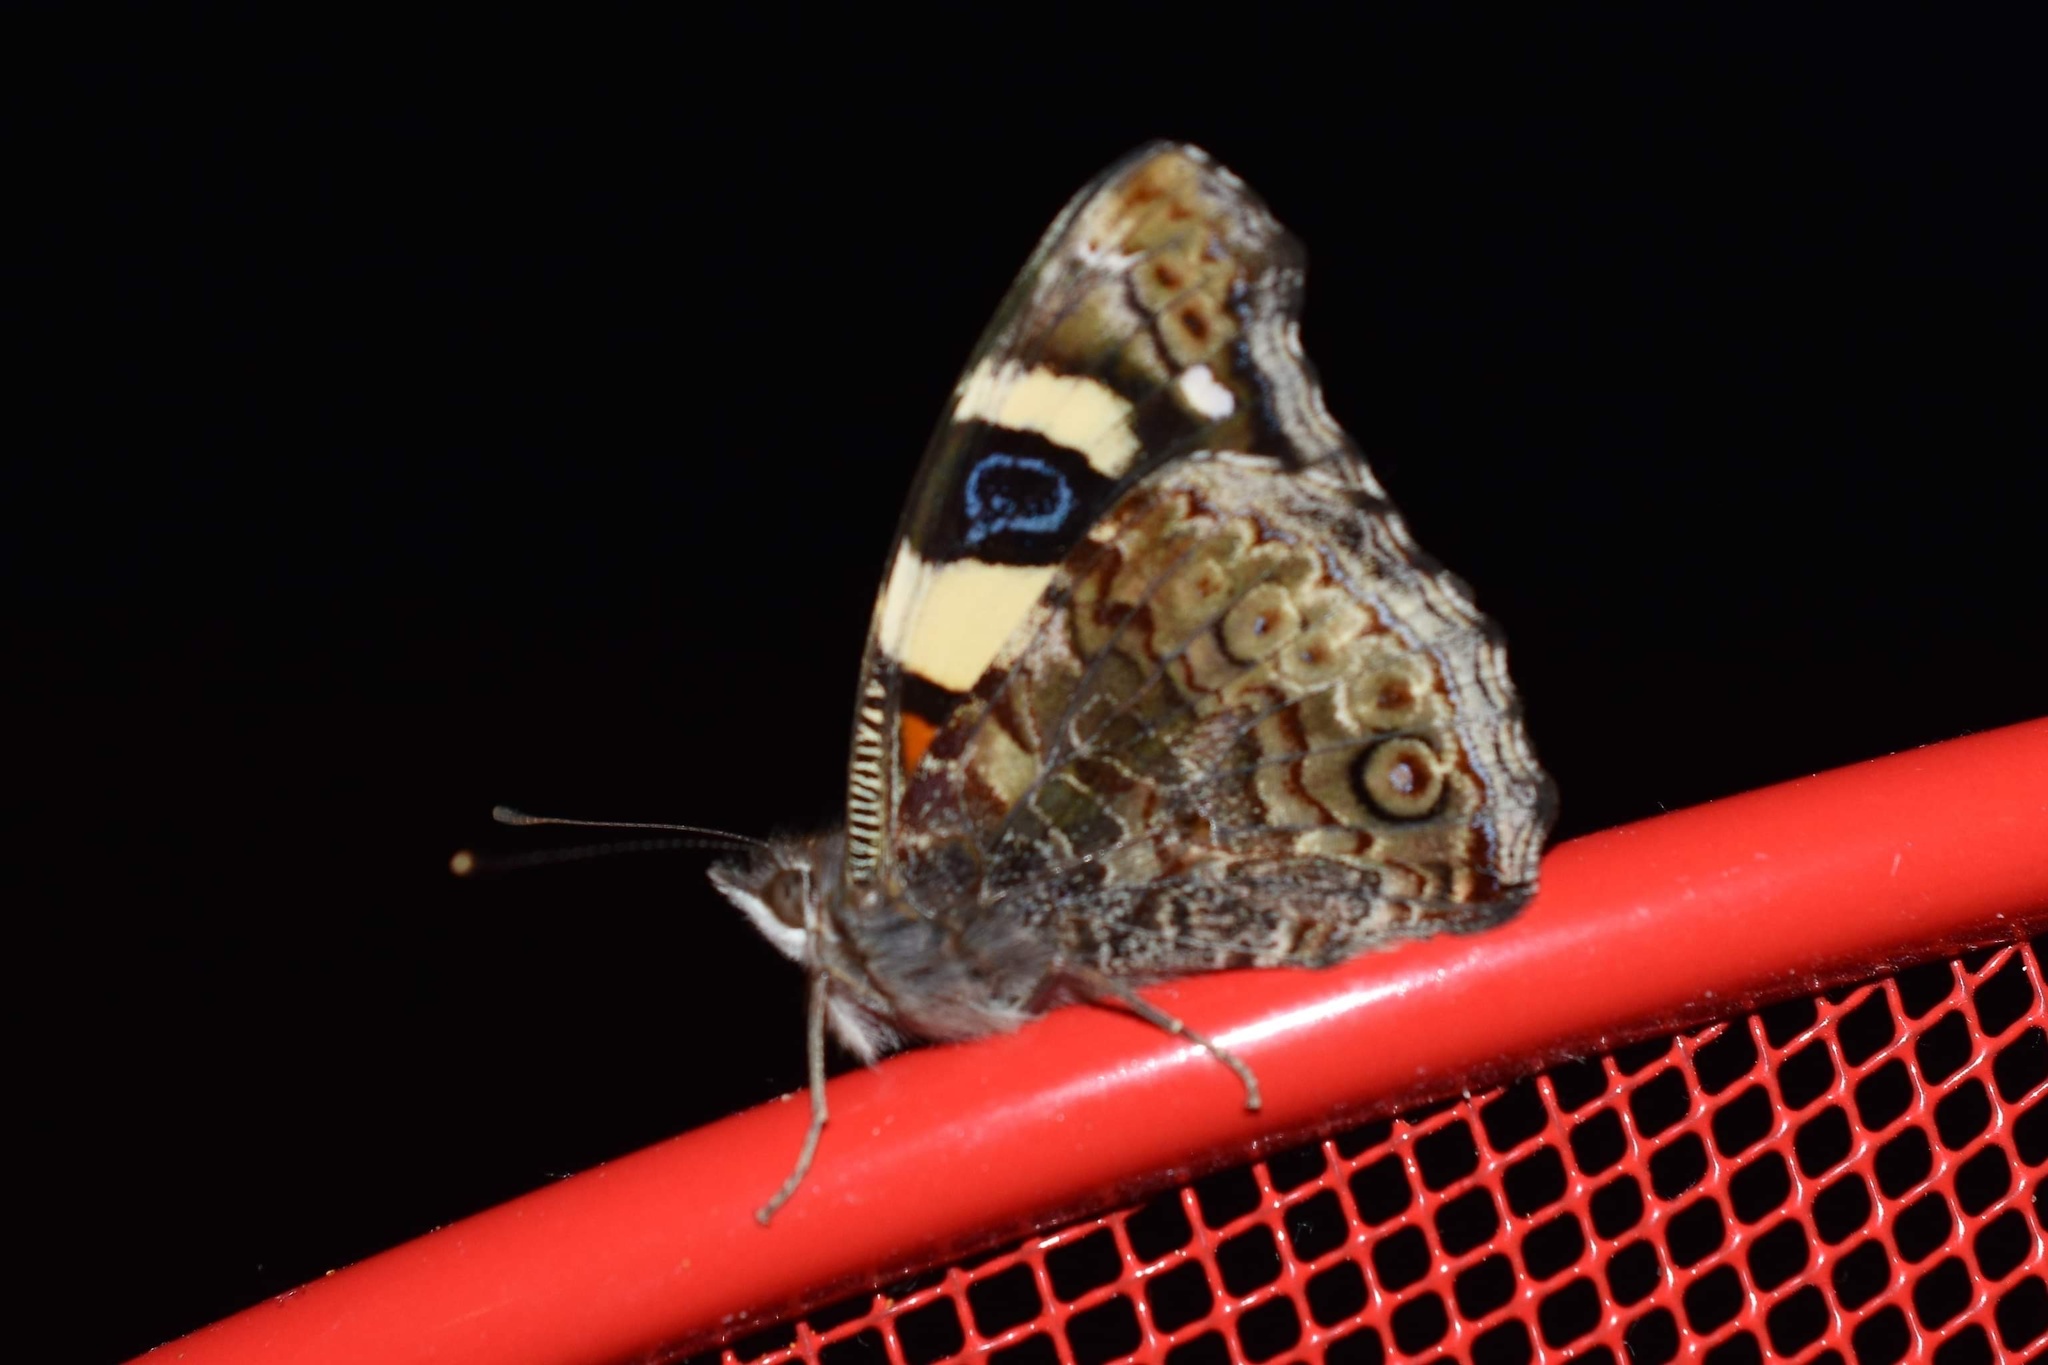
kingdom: Animalia
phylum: Arthropoda
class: Insecta
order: Lepidoptera
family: Nymphalidae
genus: Vanessa
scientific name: Vanessa itea
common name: Yellow admiral
